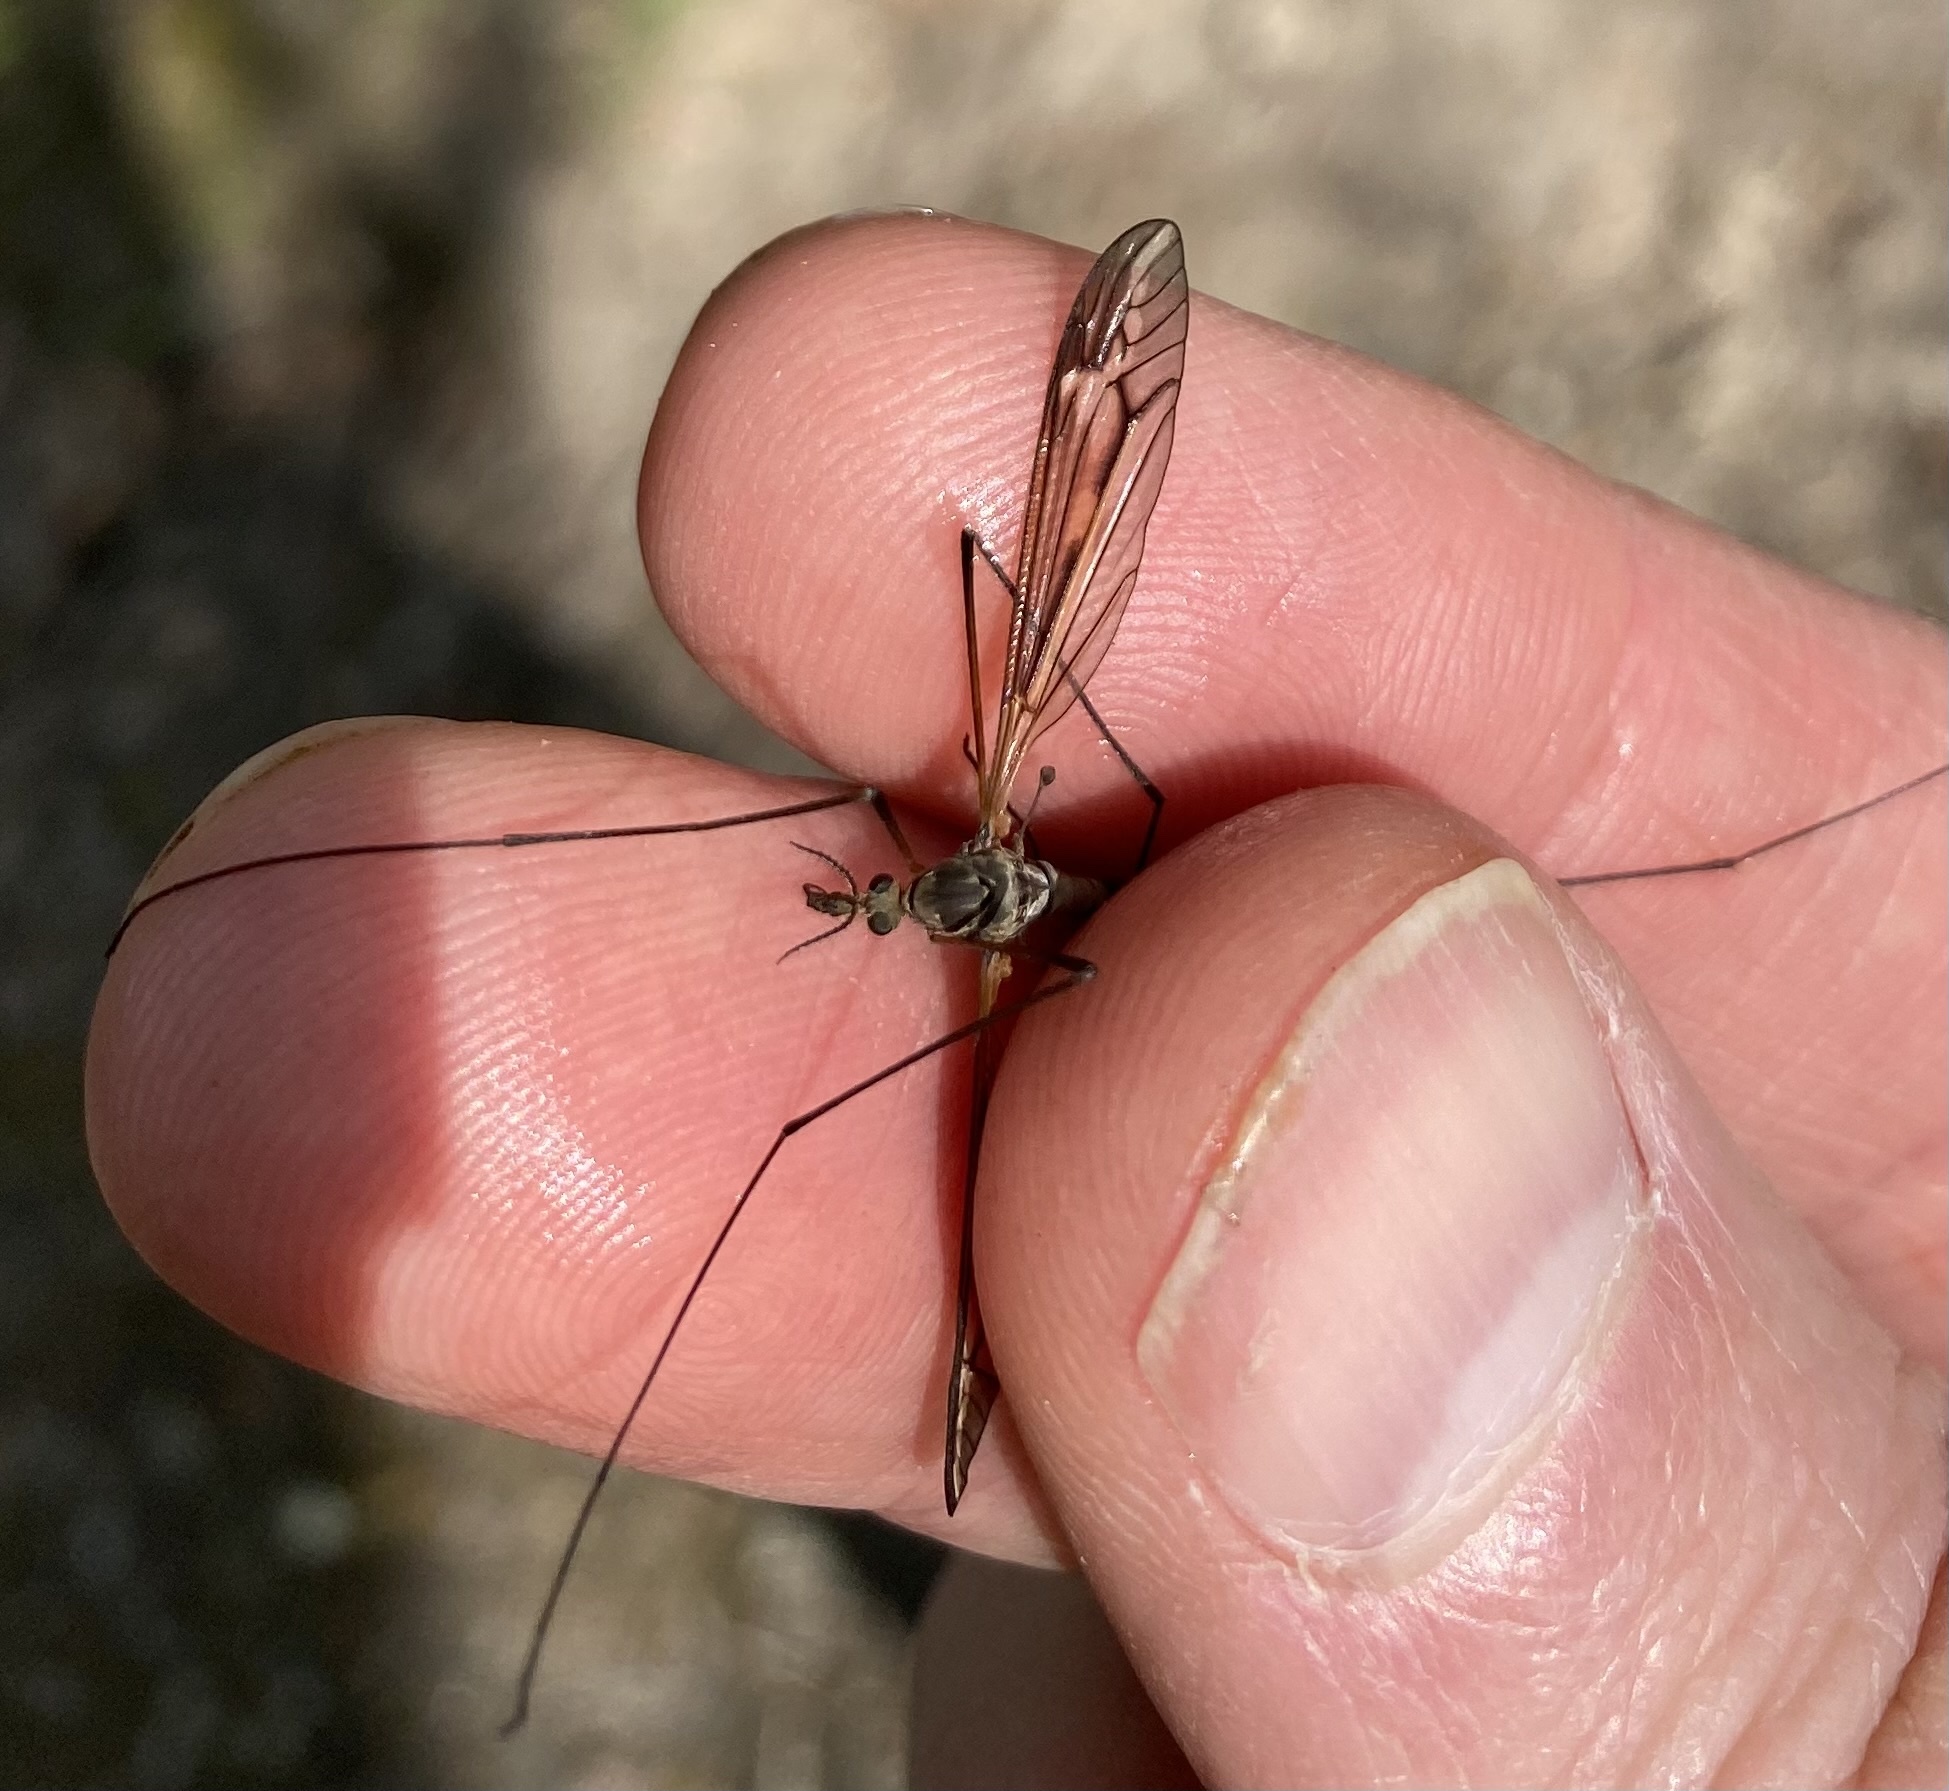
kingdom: Animalia
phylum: Arthropoda
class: Insecta
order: Diptera
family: Tipulidae
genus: Tipula
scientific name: Tipula vittata
